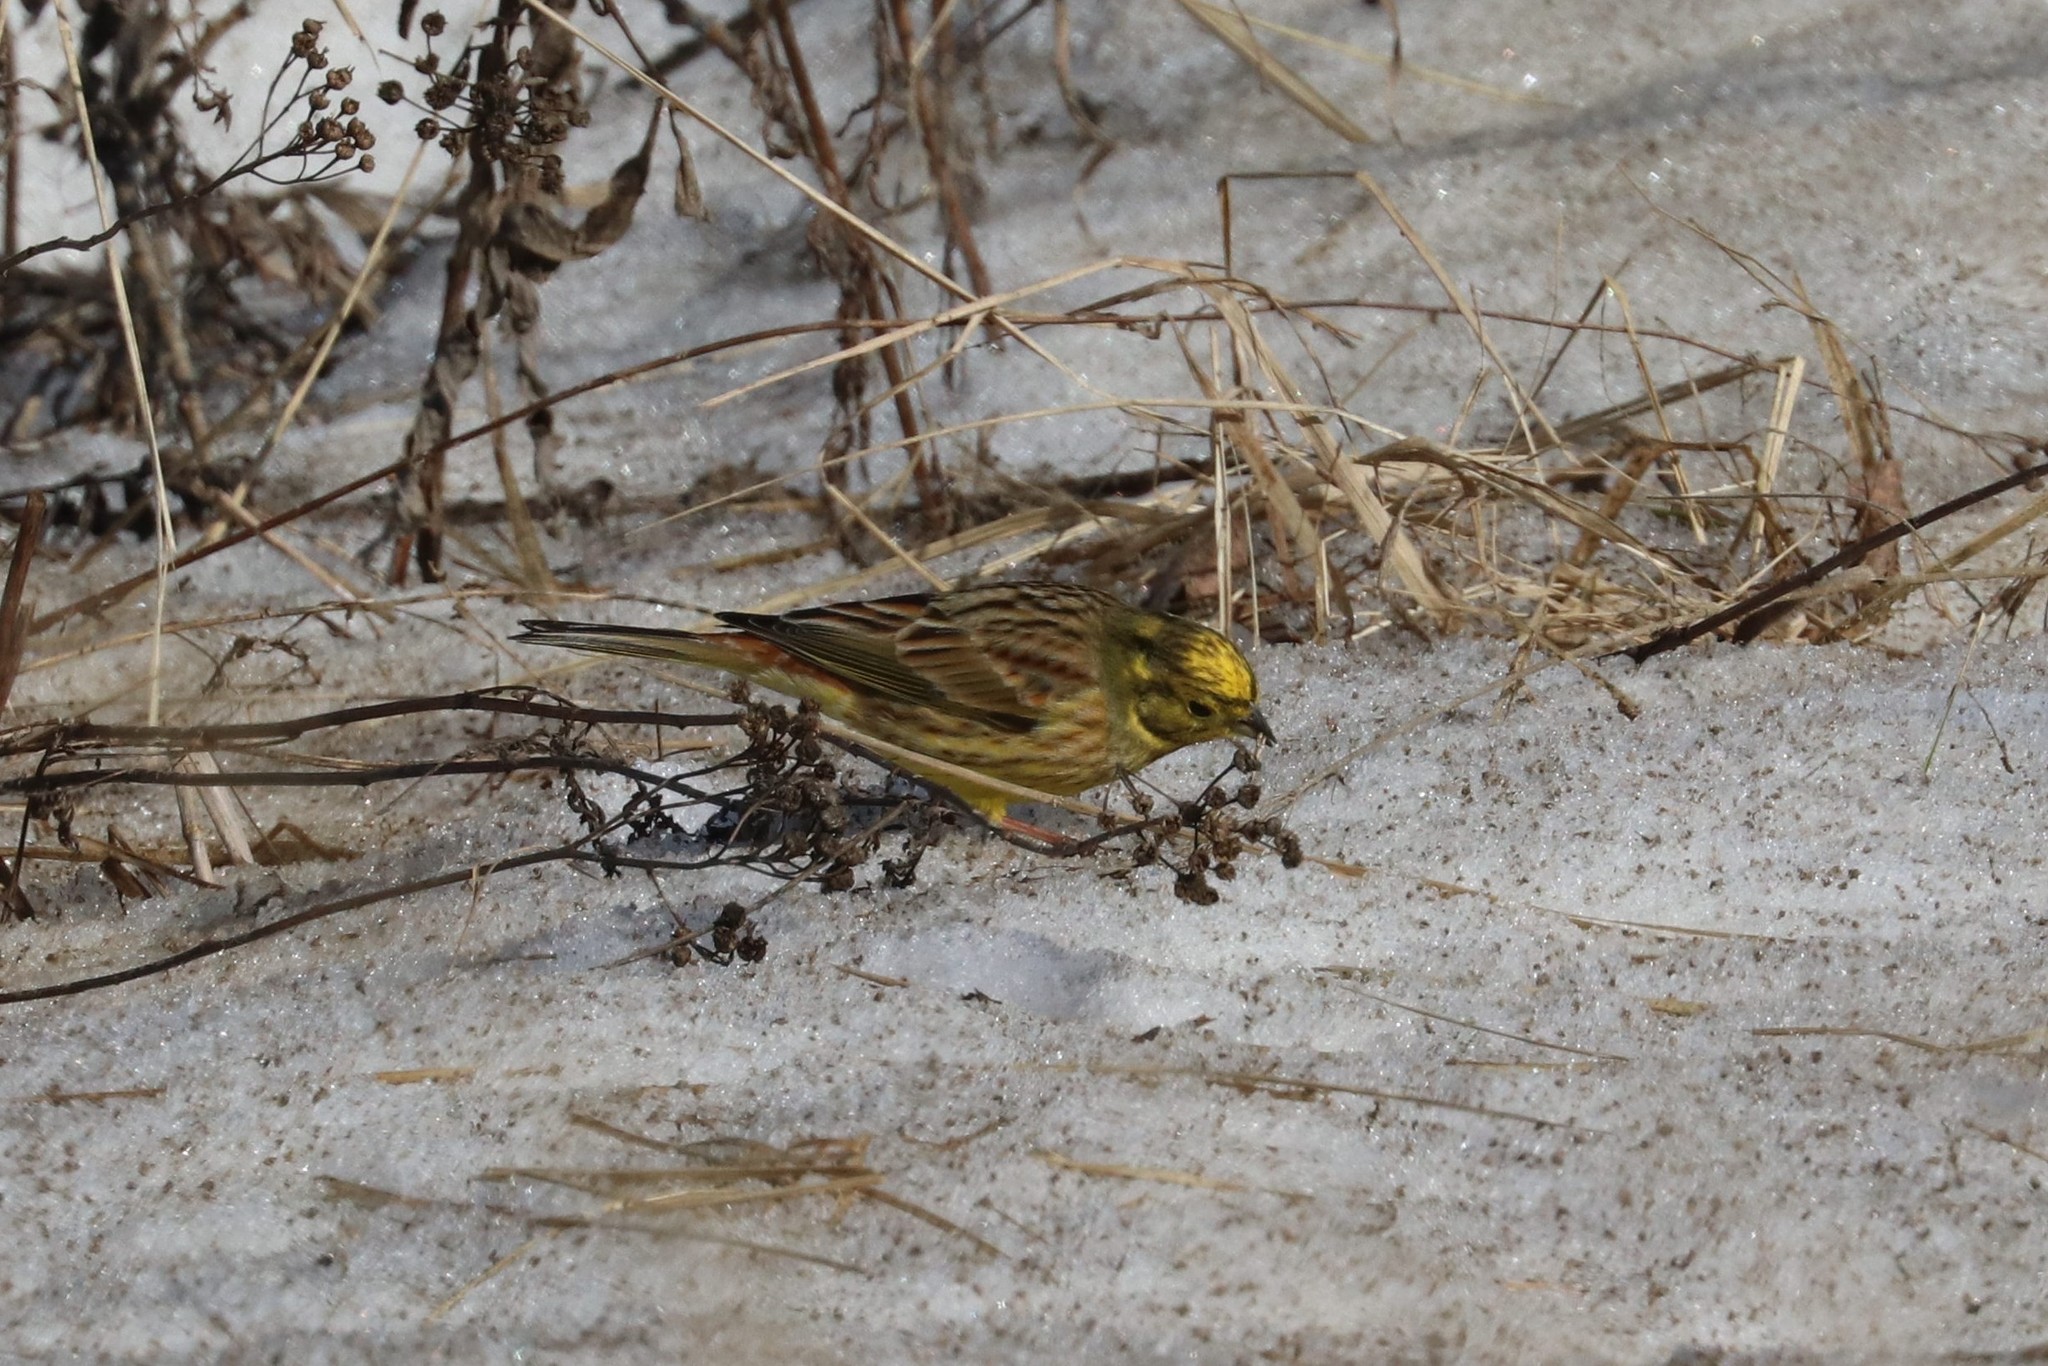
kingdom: Animalia
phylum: Chordata
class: Aves
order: Passeriformes
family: Emberizidae
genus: Emberiza
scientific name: Emberiza citrinella
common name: Yellowhammer
